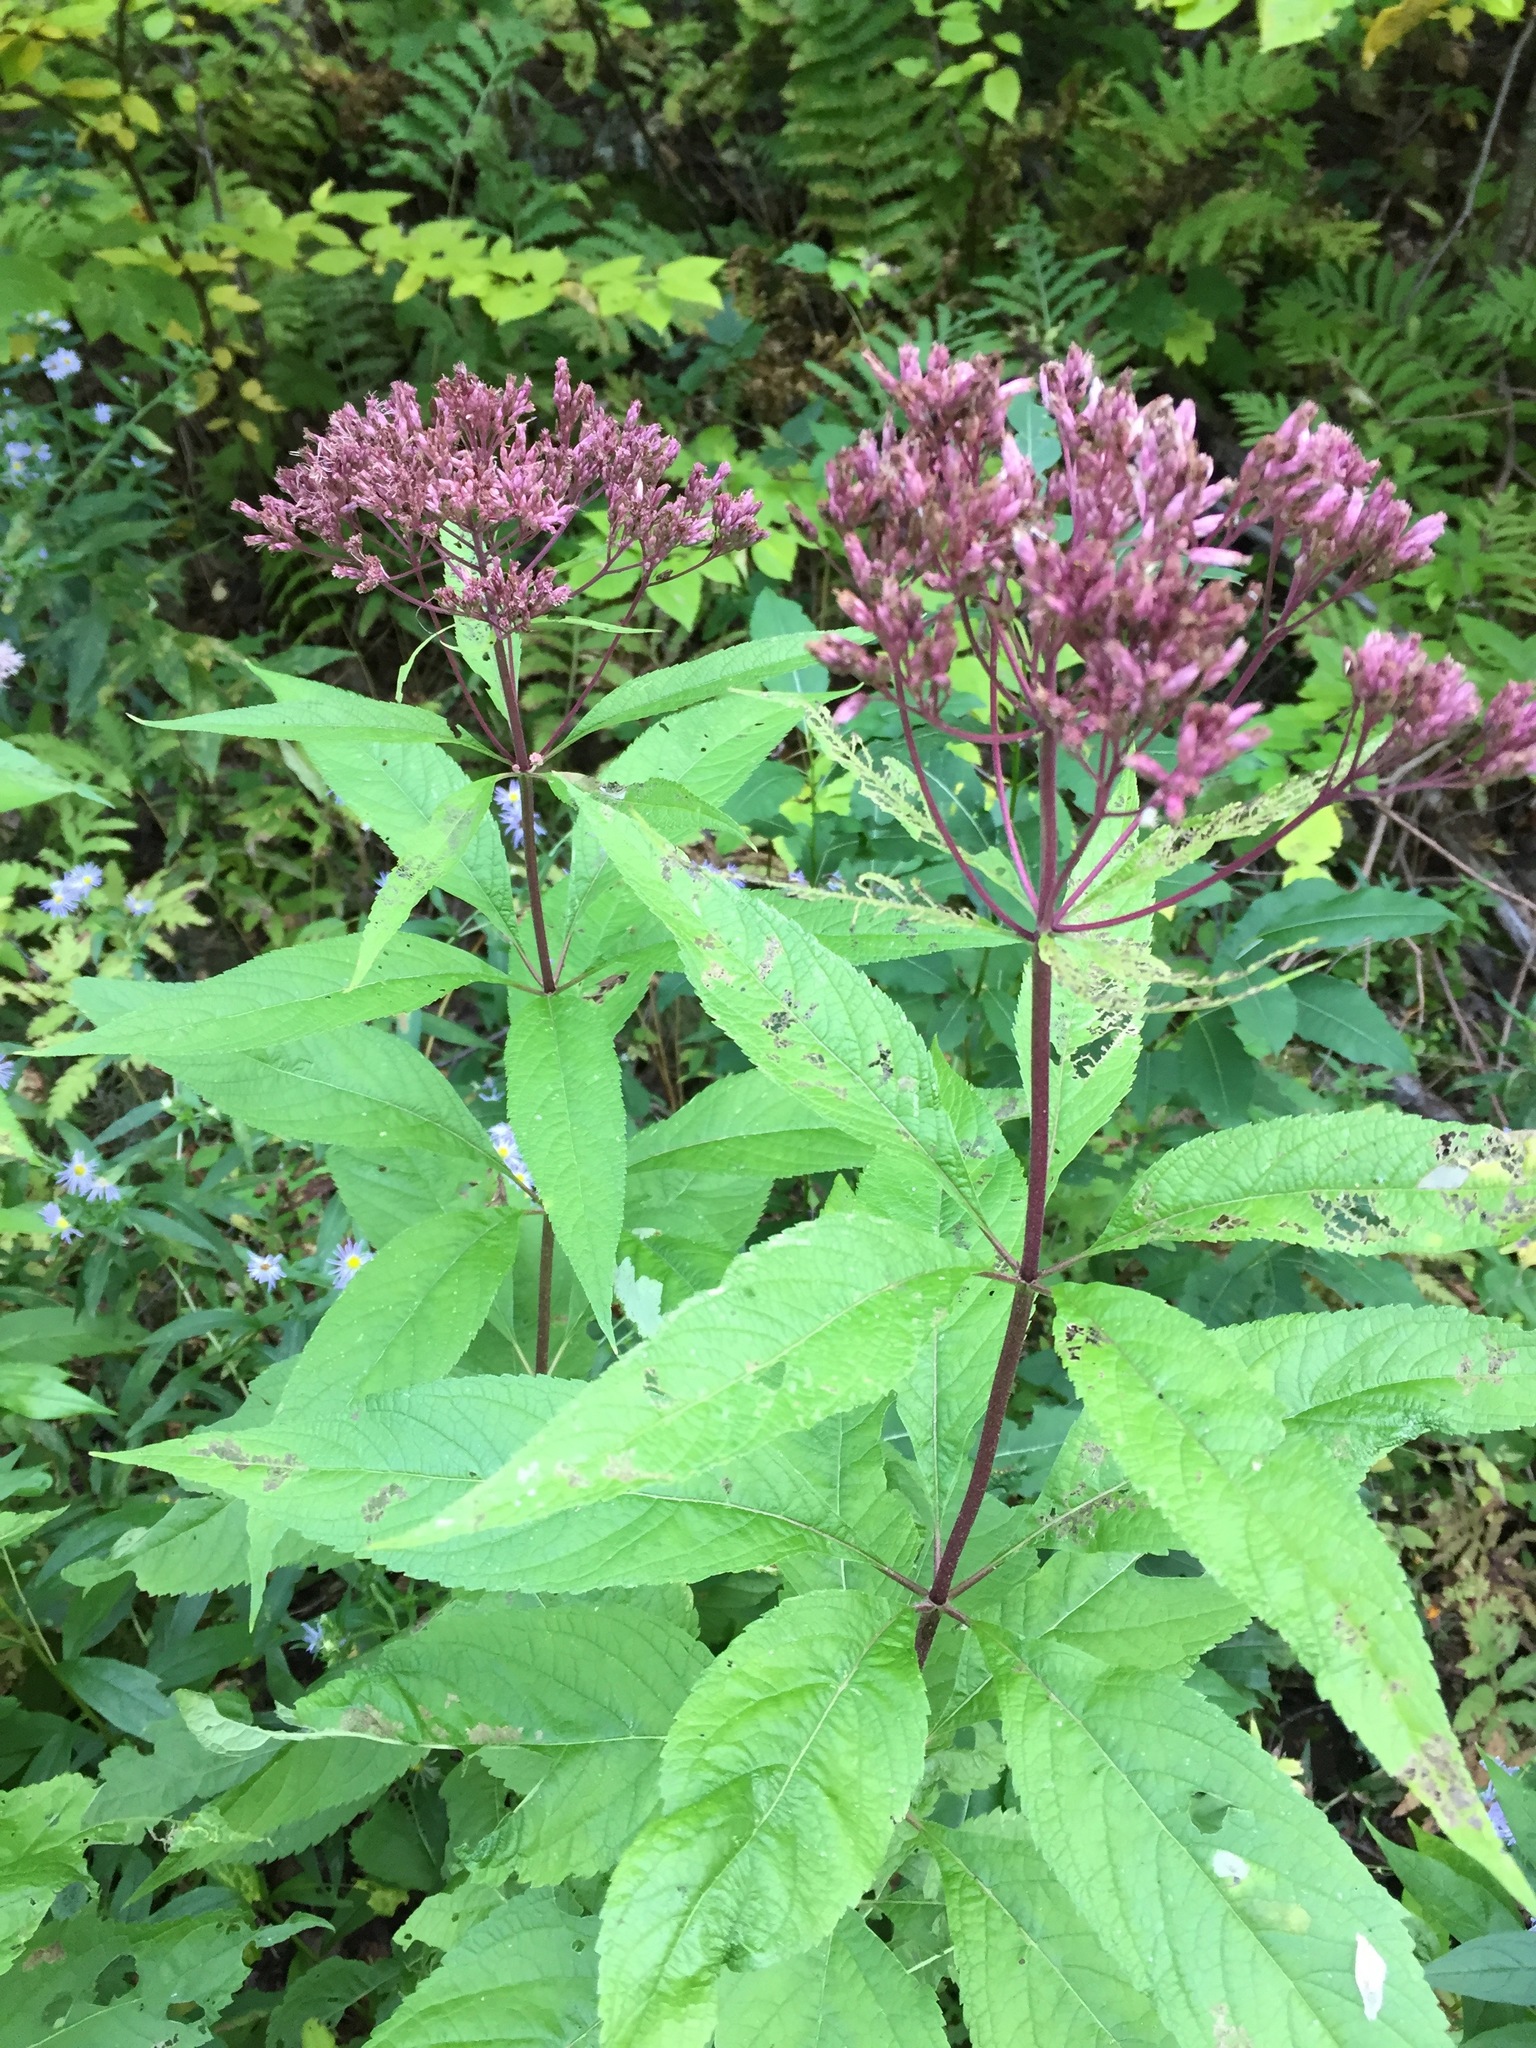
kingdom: Plantae
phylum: Tracheophyta
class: Magnoliopsida
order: Asterales
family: Asteraceae
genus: Eutrochium
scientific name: Eutrochium maculatum
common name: Spotted joe pye weed
